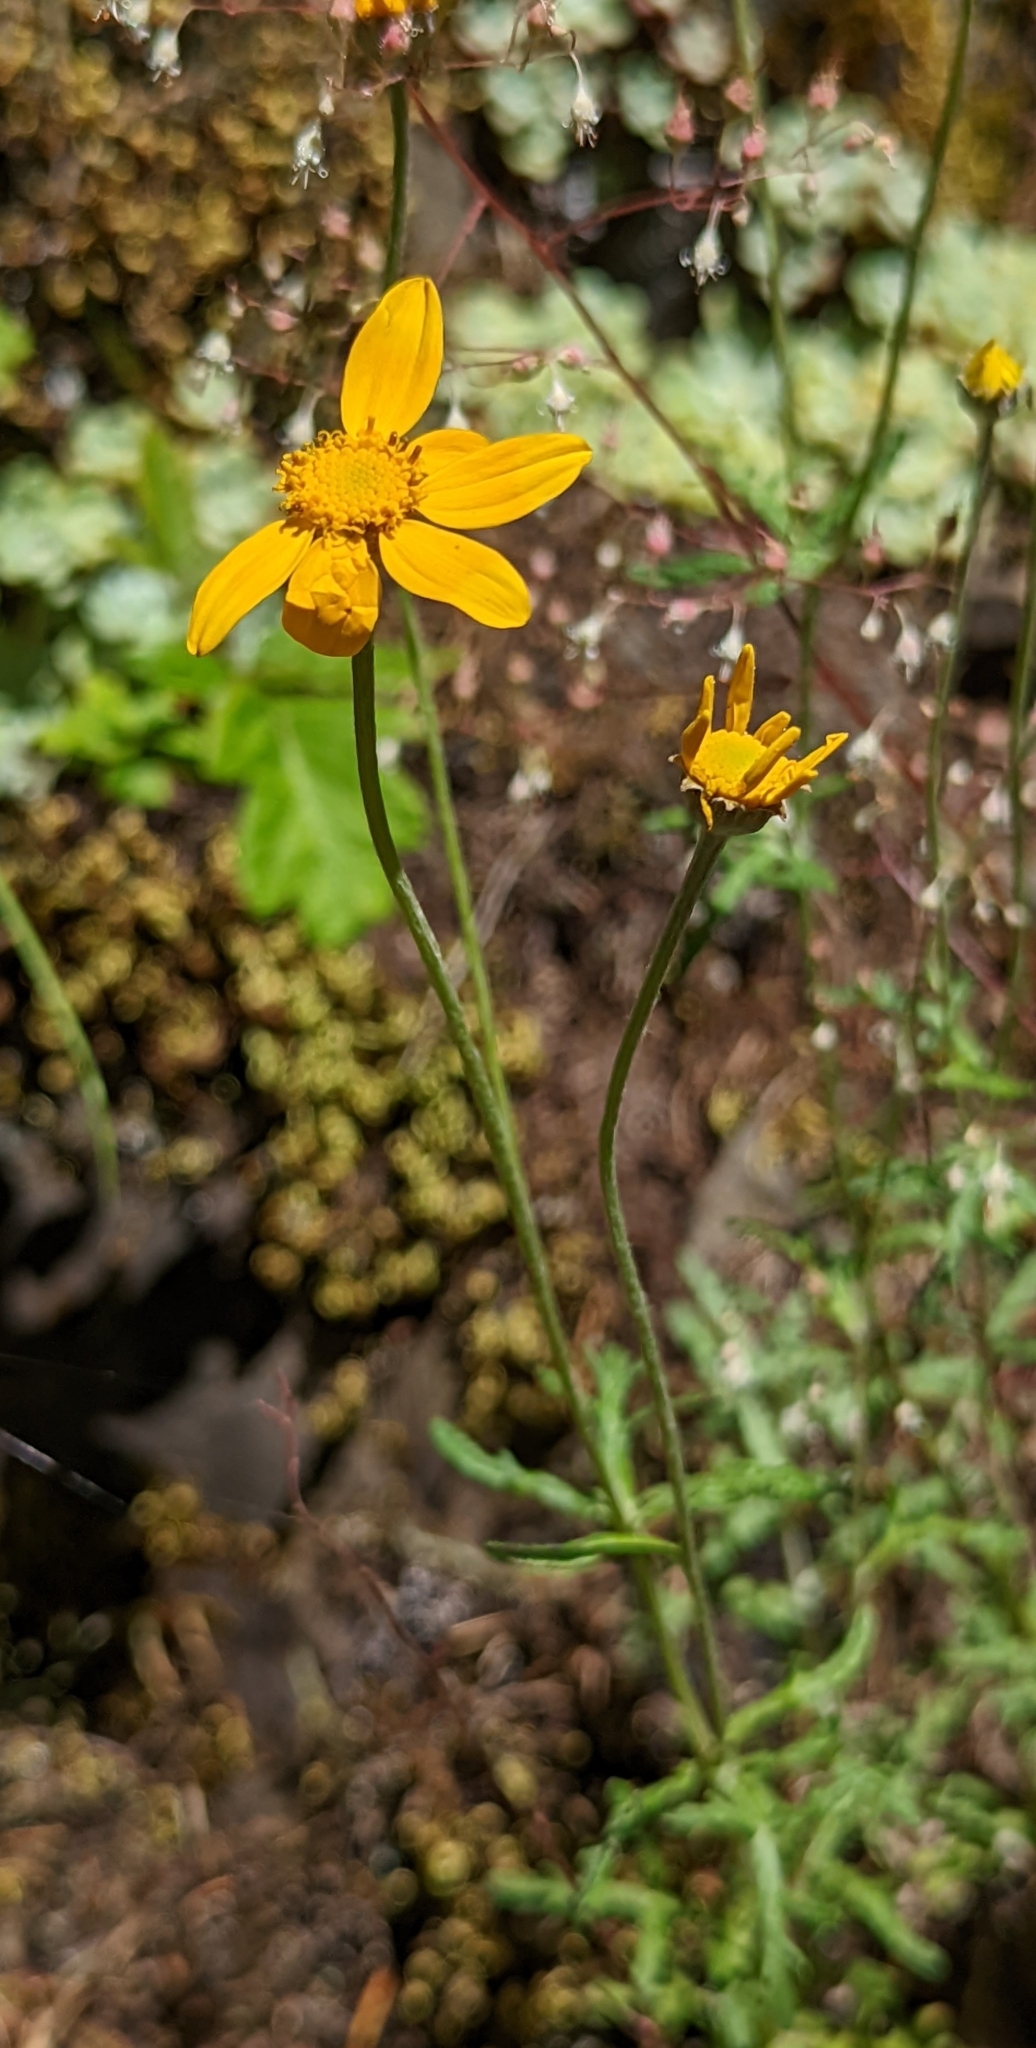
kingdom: Plantae
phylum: Tracheophyta
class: Magnoliopsida
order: Asterales
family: Asteraceae
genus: Eriophyllum
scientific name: Eriophyllum lanatum
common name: Common woolly-sunflower
